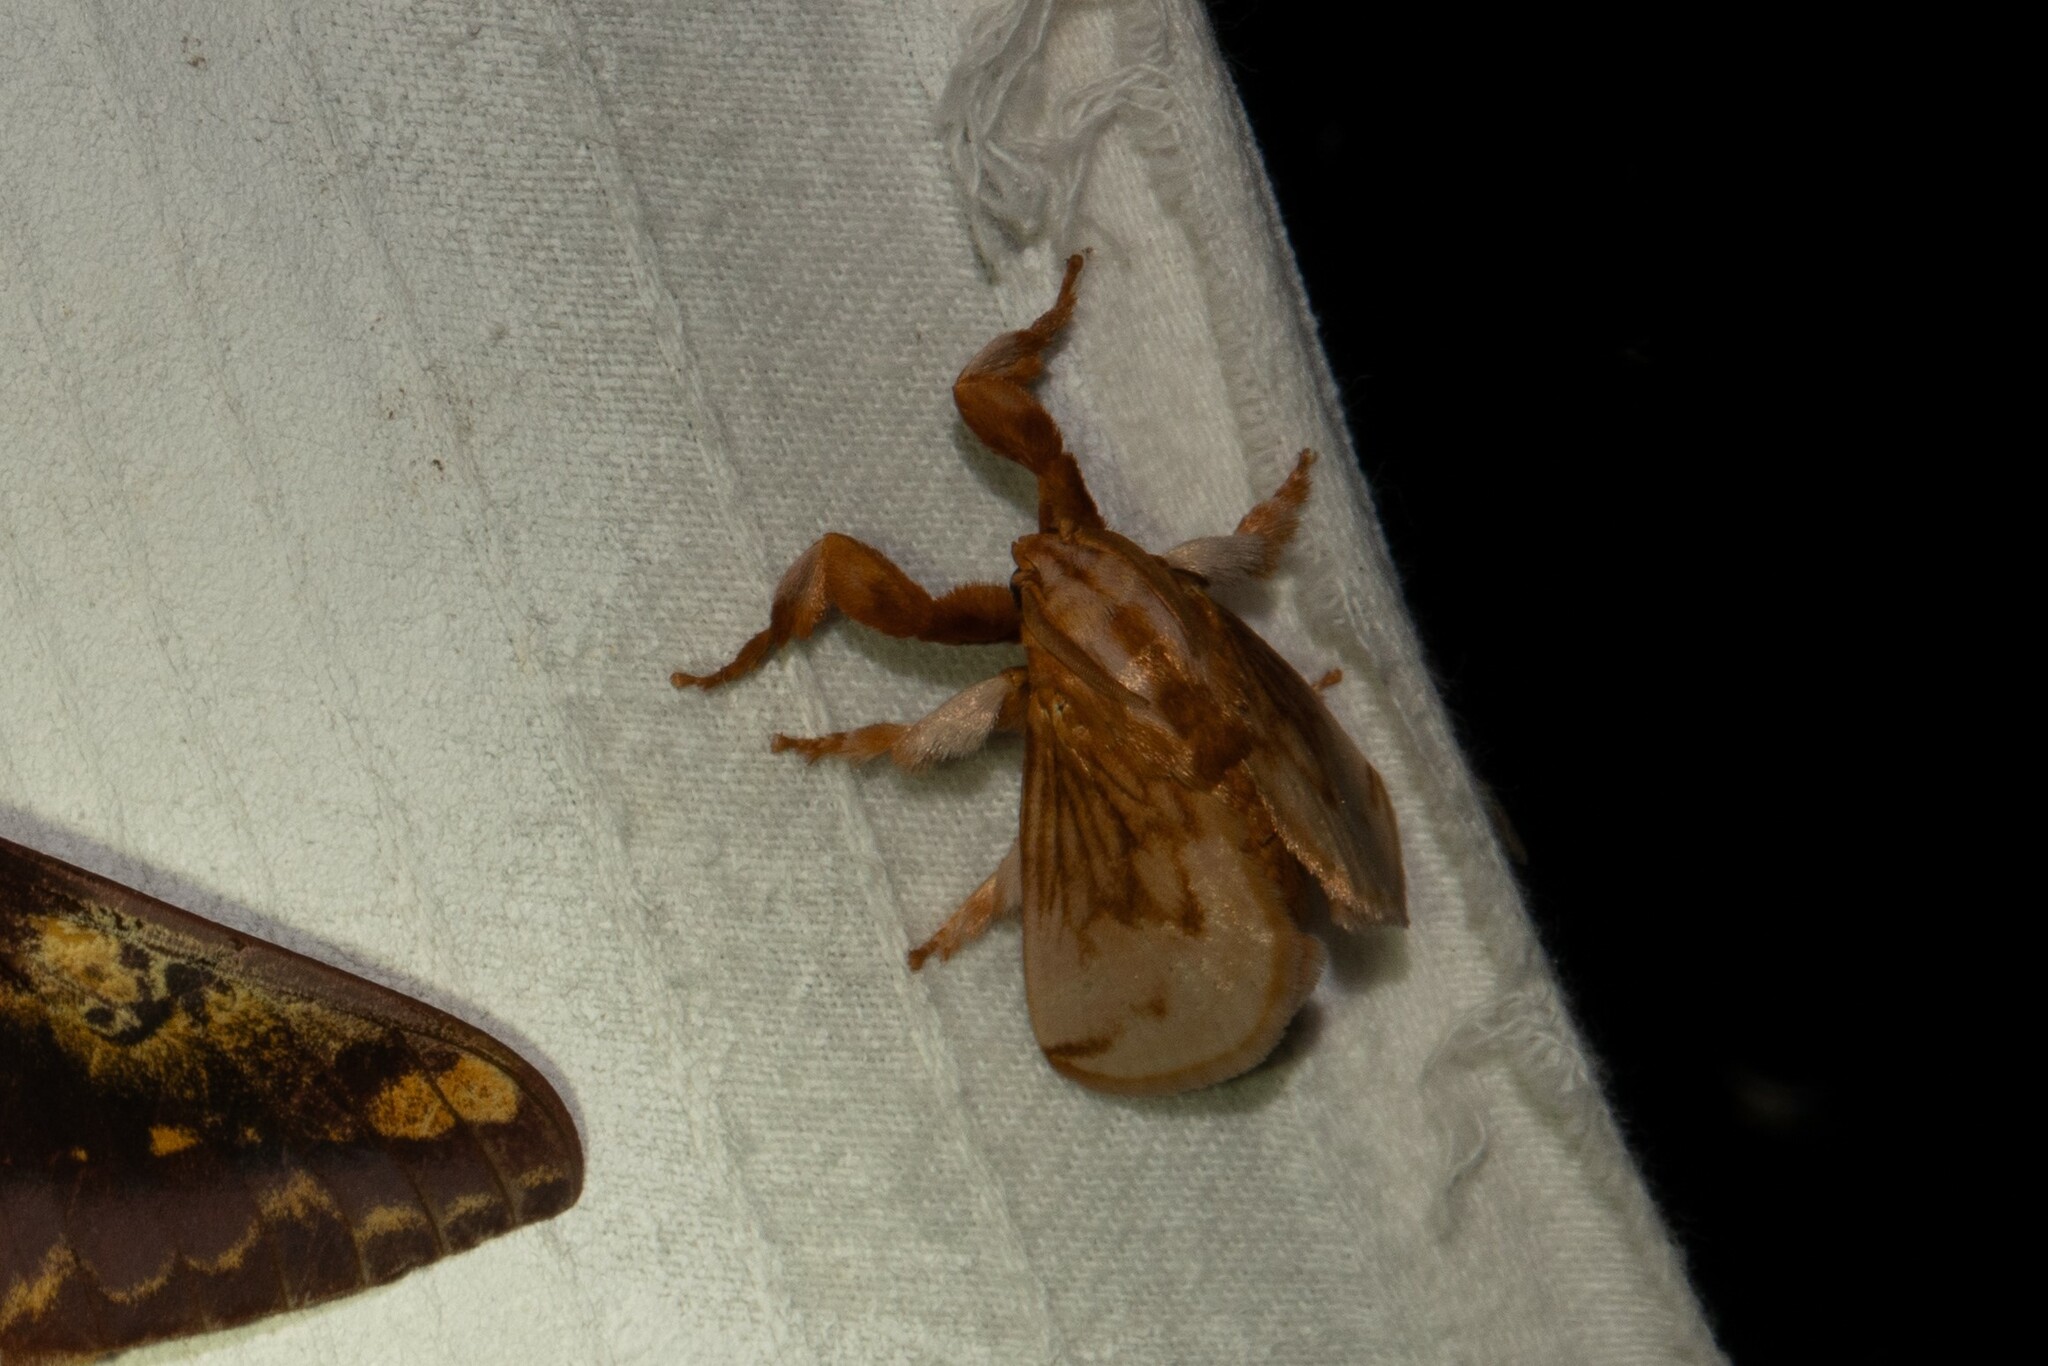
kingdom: Animalia
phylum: Arthropoda
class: Insecta
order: Lepidoptera
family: Limacodidae
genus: Perola
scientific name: Perola sericea
